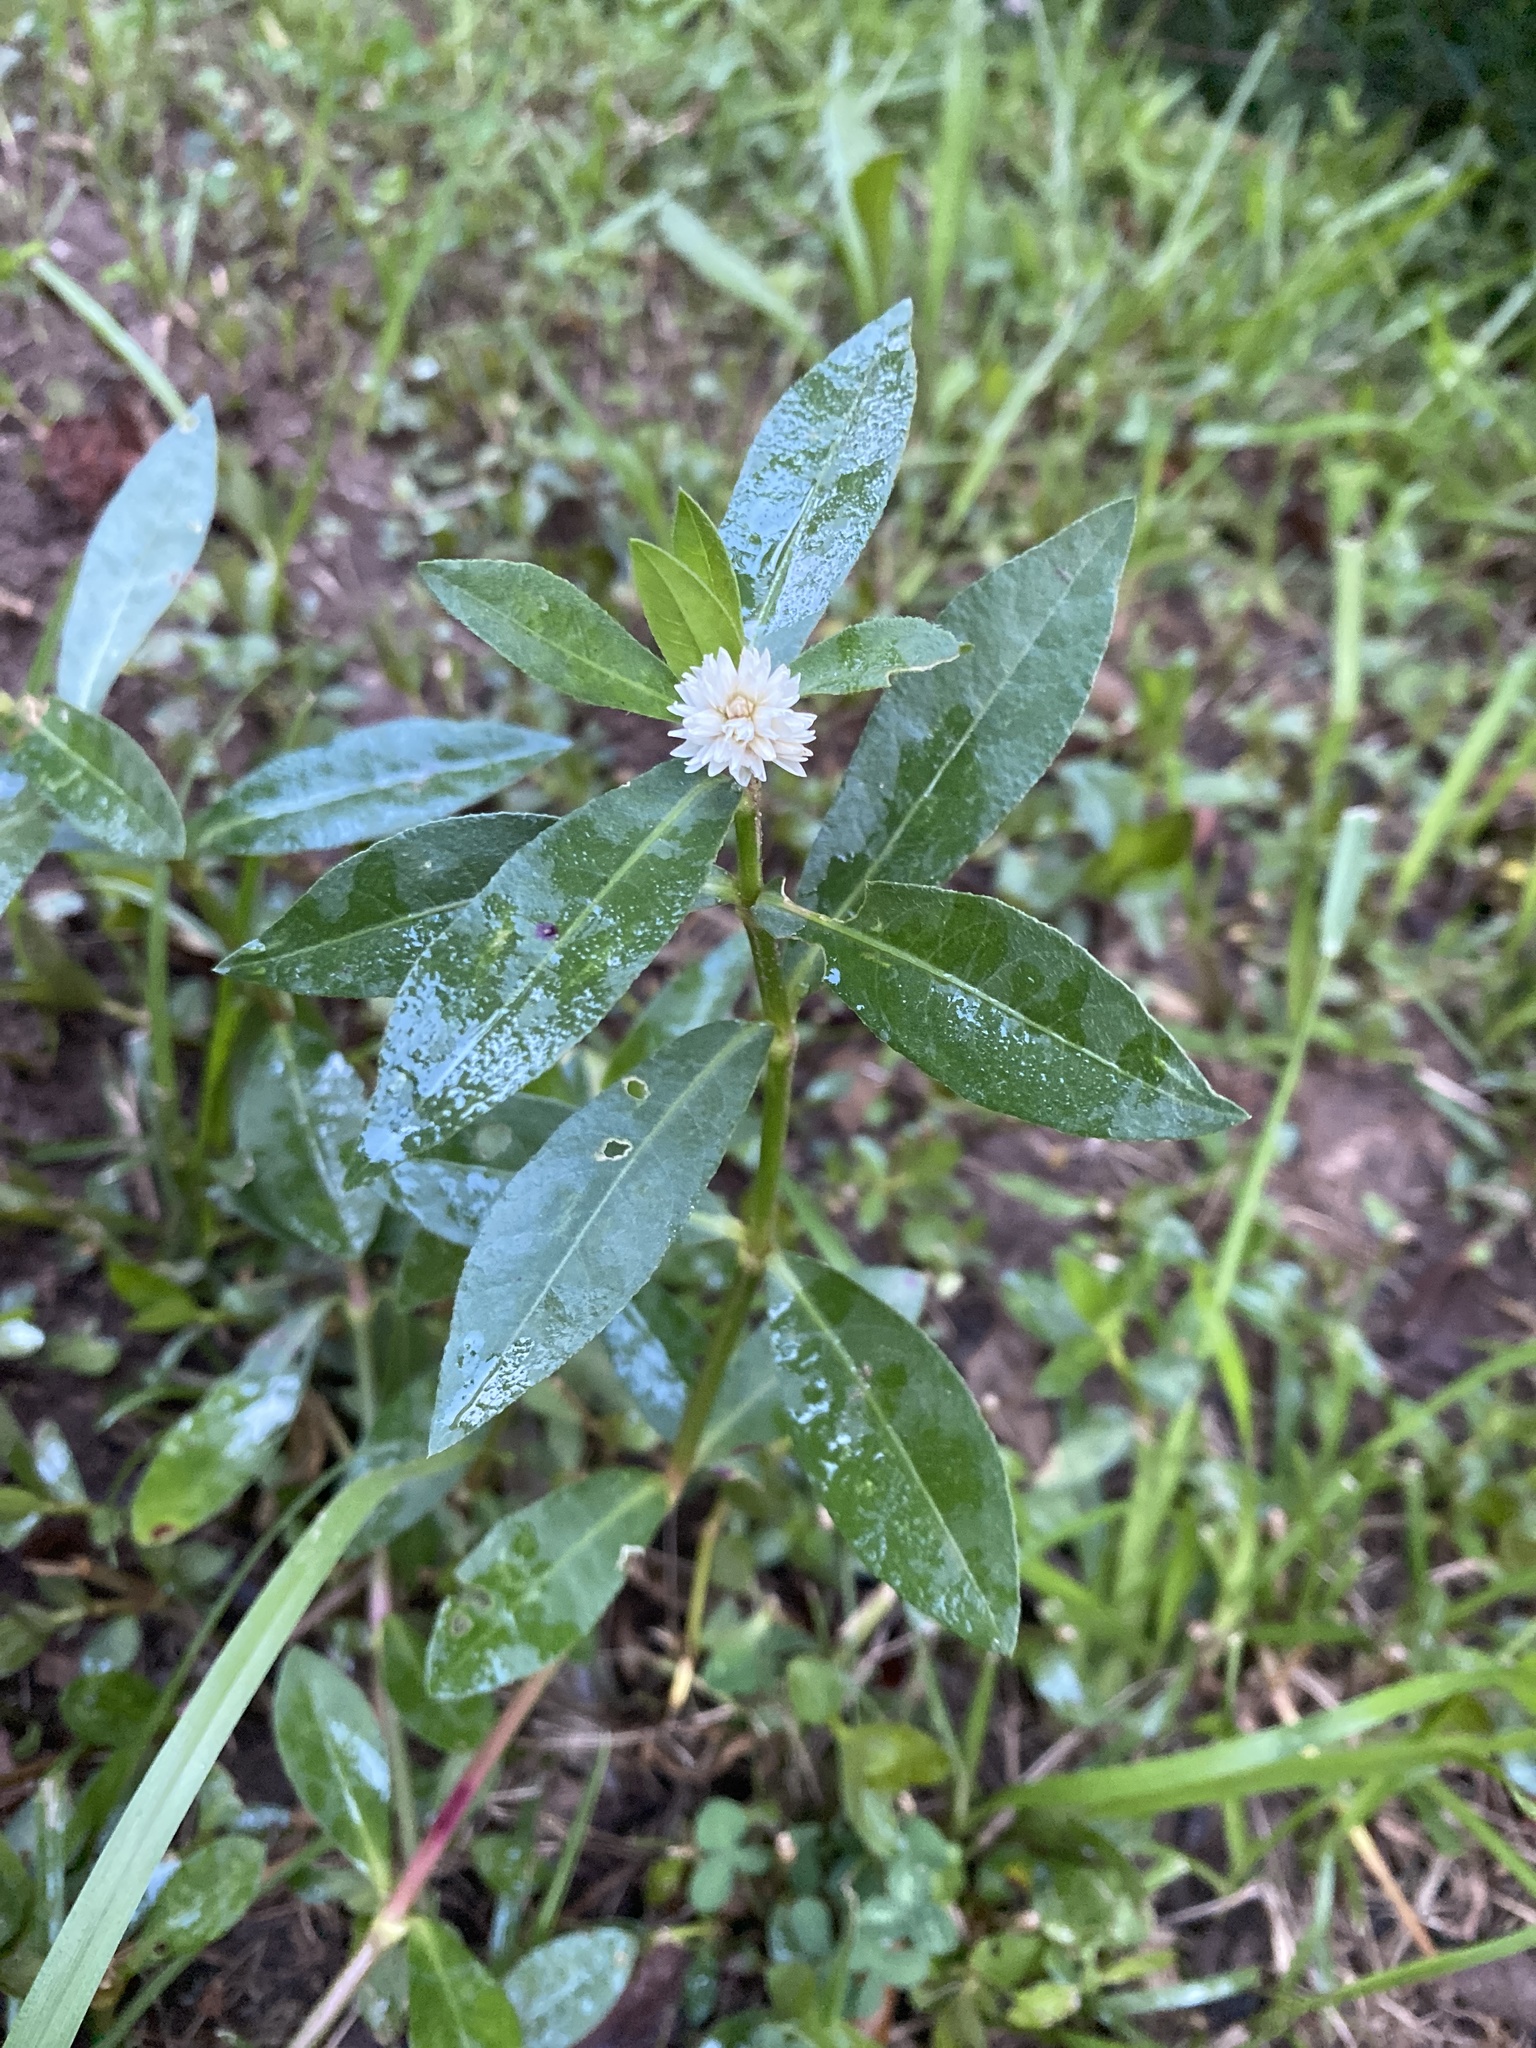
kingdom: Plantae
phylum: Tracheophyta
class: Magnoliopsida
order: Caryophyllales
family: Amaranthaceae
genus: Alternanthera
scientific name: Alternanthera philoxeroides
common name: Alligatorweed
